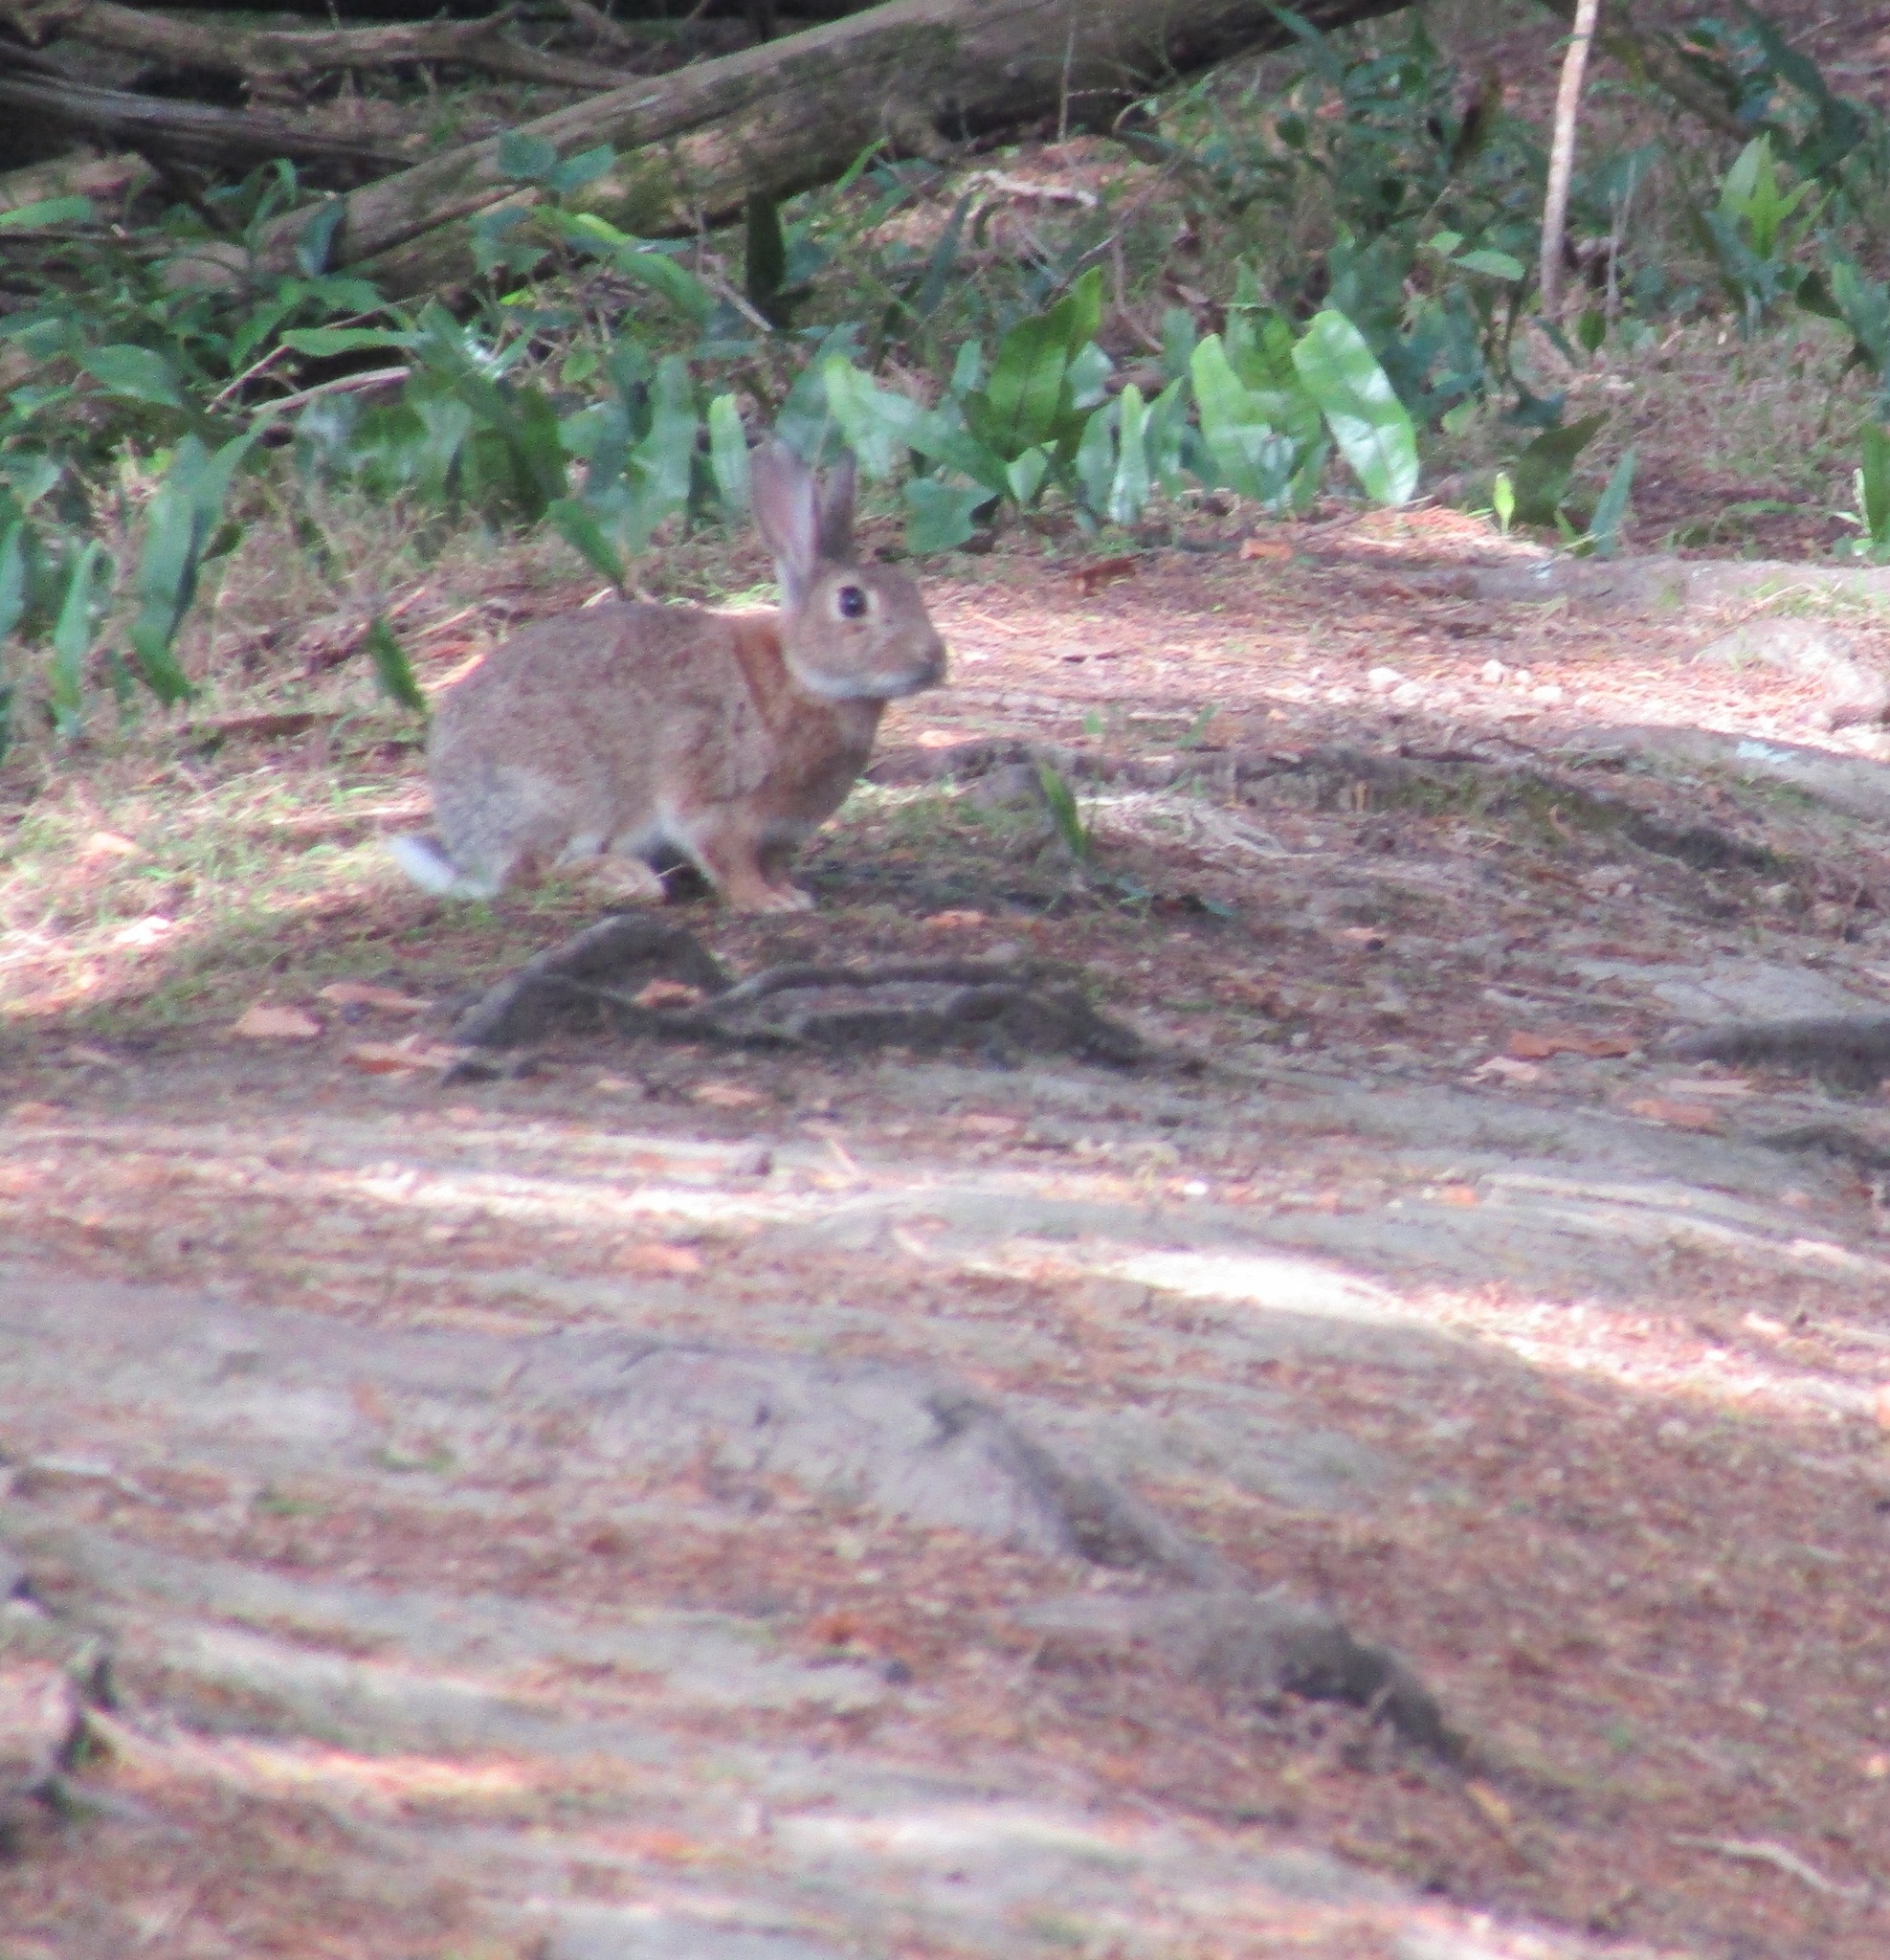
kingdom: Animalia
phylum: Chordata
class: Mammalia
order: Lagomorpha
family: Leporidae
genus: Oryctolagus
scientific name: Oryctolagus cuniculus
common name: European rabbit
